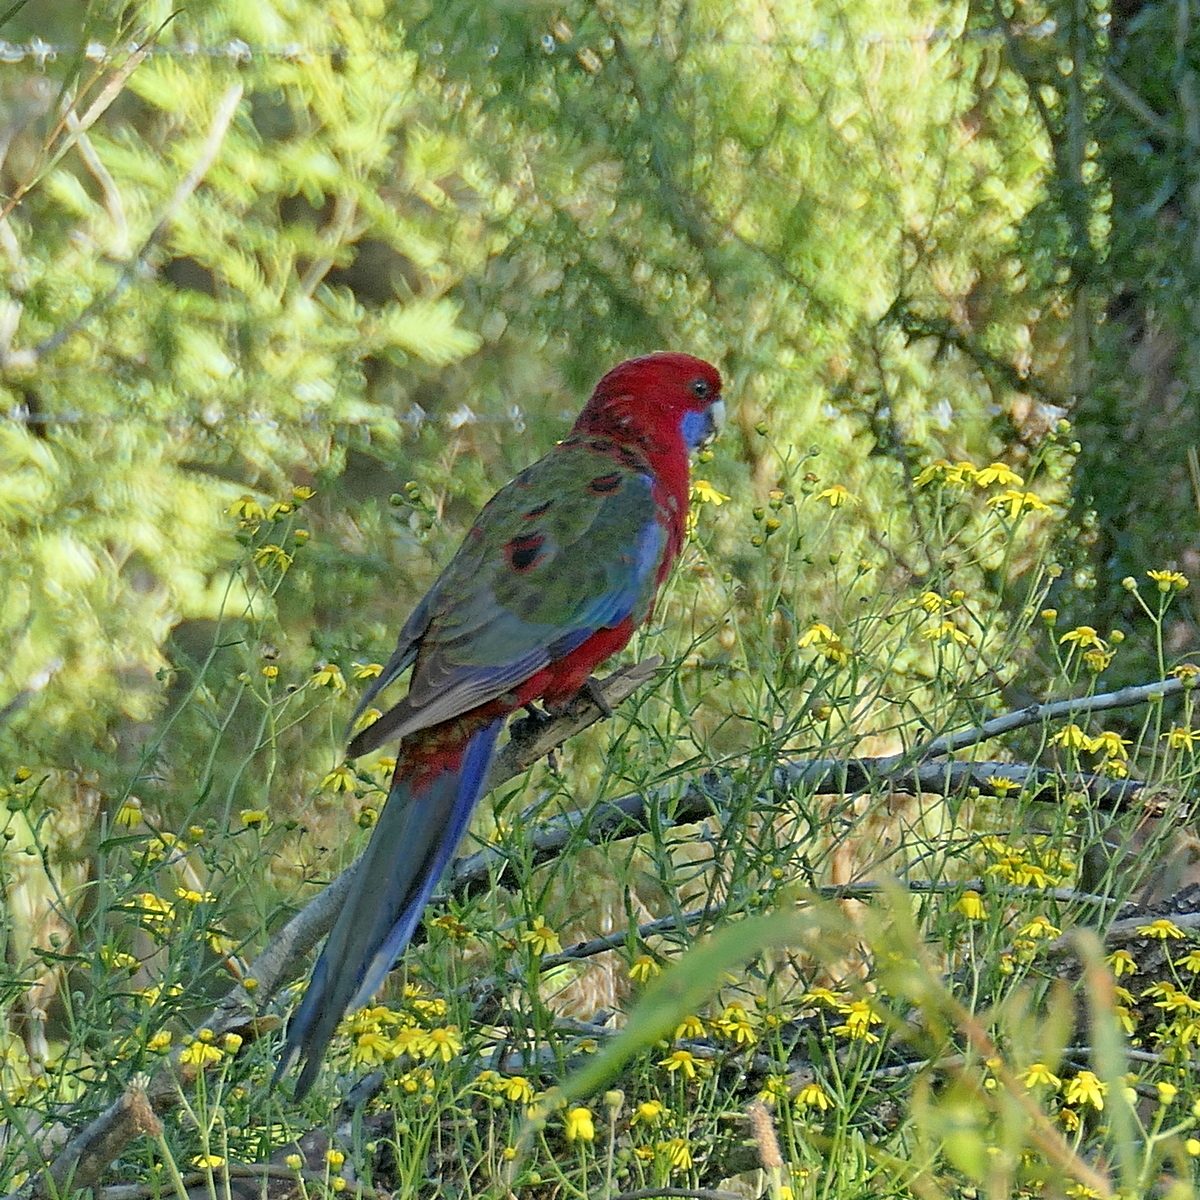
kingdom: Animalia
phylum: Chordata
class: Aves
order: Psittaciformes
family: Psittacidae
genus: Platycercus
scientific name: Platycercus elegans
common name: Crimson rosella
